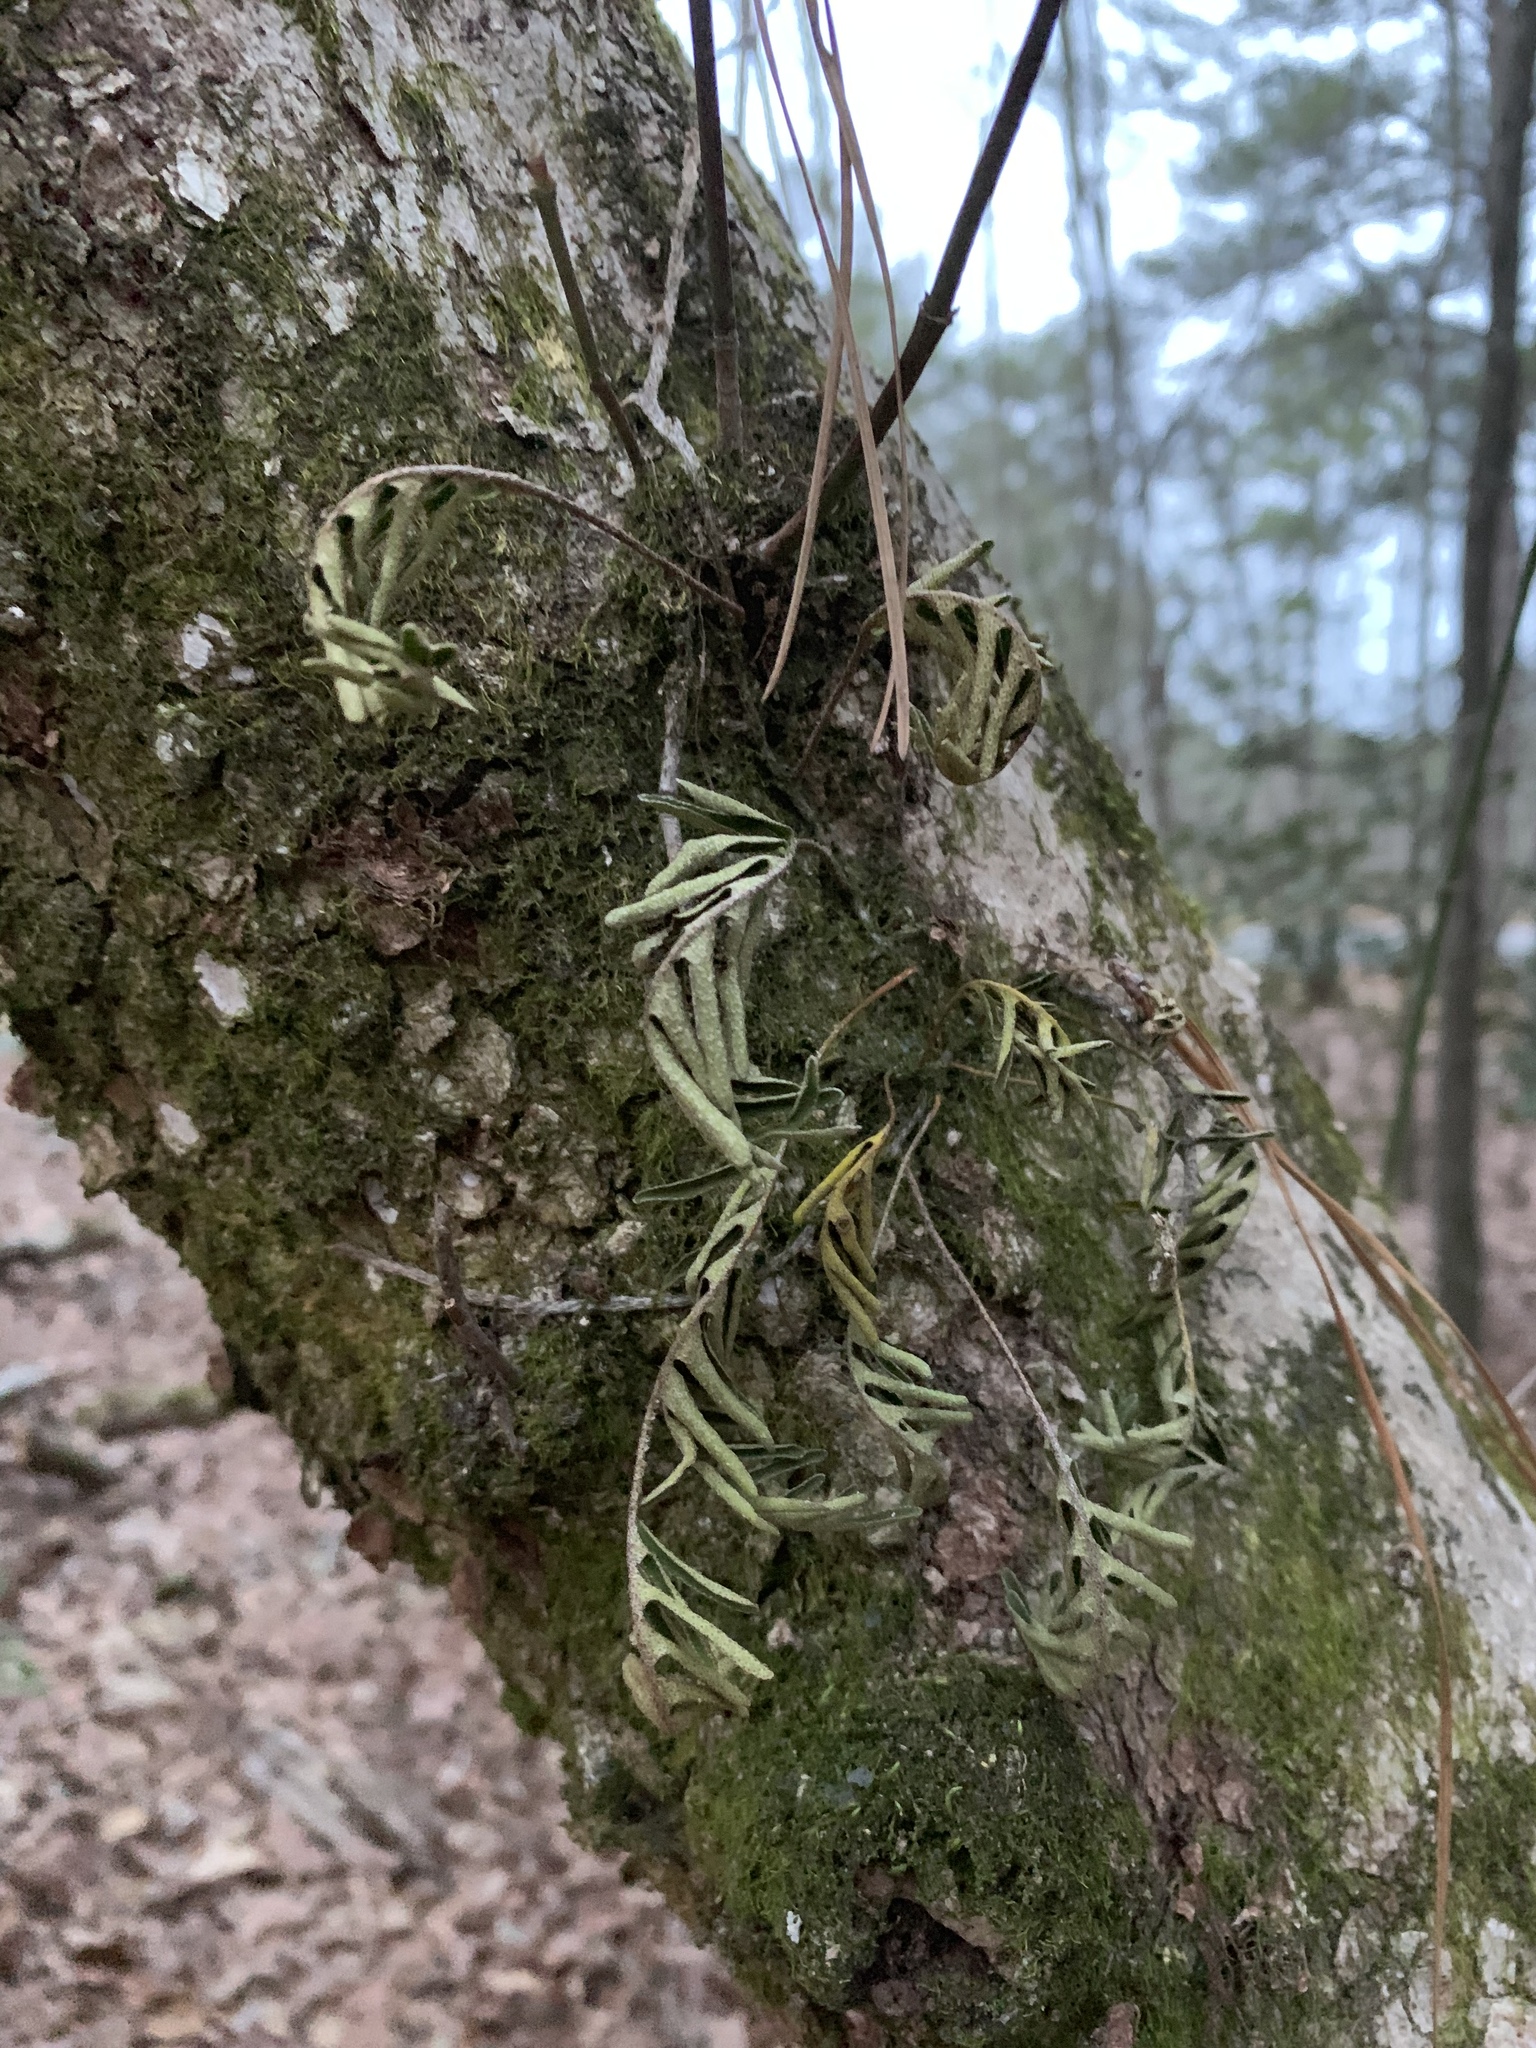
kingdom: Plantae
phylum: Tracheophyta
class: Polypodiopsida
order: Polypodiales
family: Polypodiaceae
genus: Pleopeltis
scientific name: Pleopeltis michauxiana
